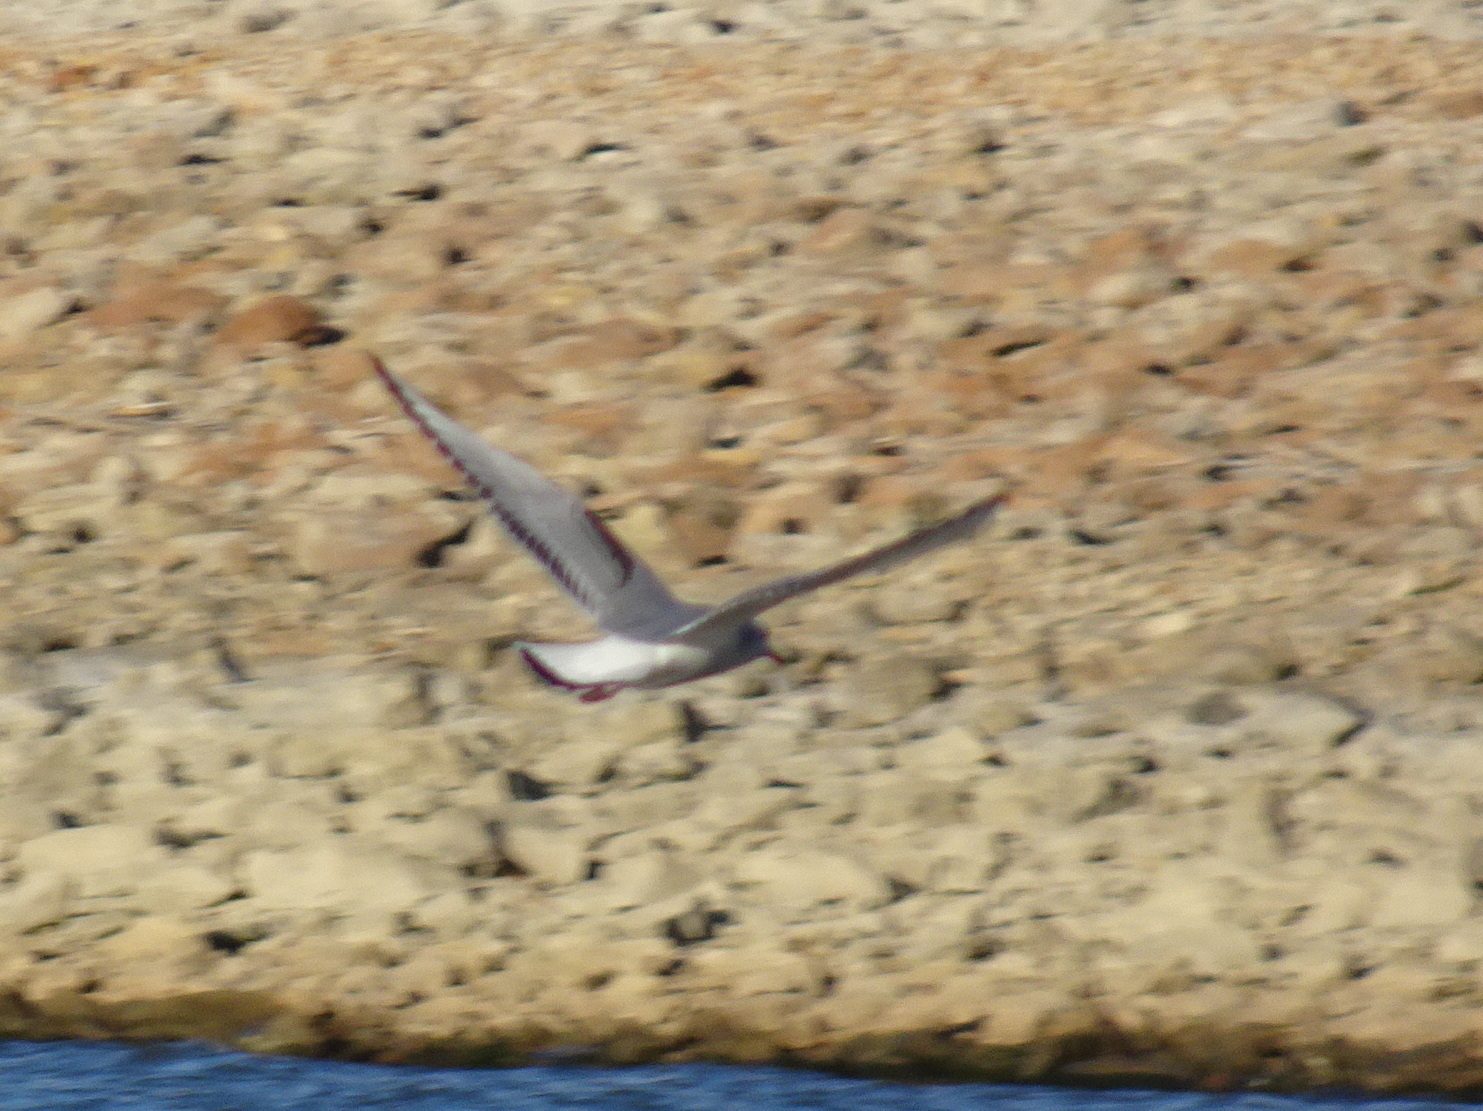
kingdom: Animalia
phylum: Chordata
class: Aves
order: Charadriiformes
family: Laridae
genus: Chroicocephalus
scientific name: Chroicocephalus philadelphia
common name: Bonaparte's gull
